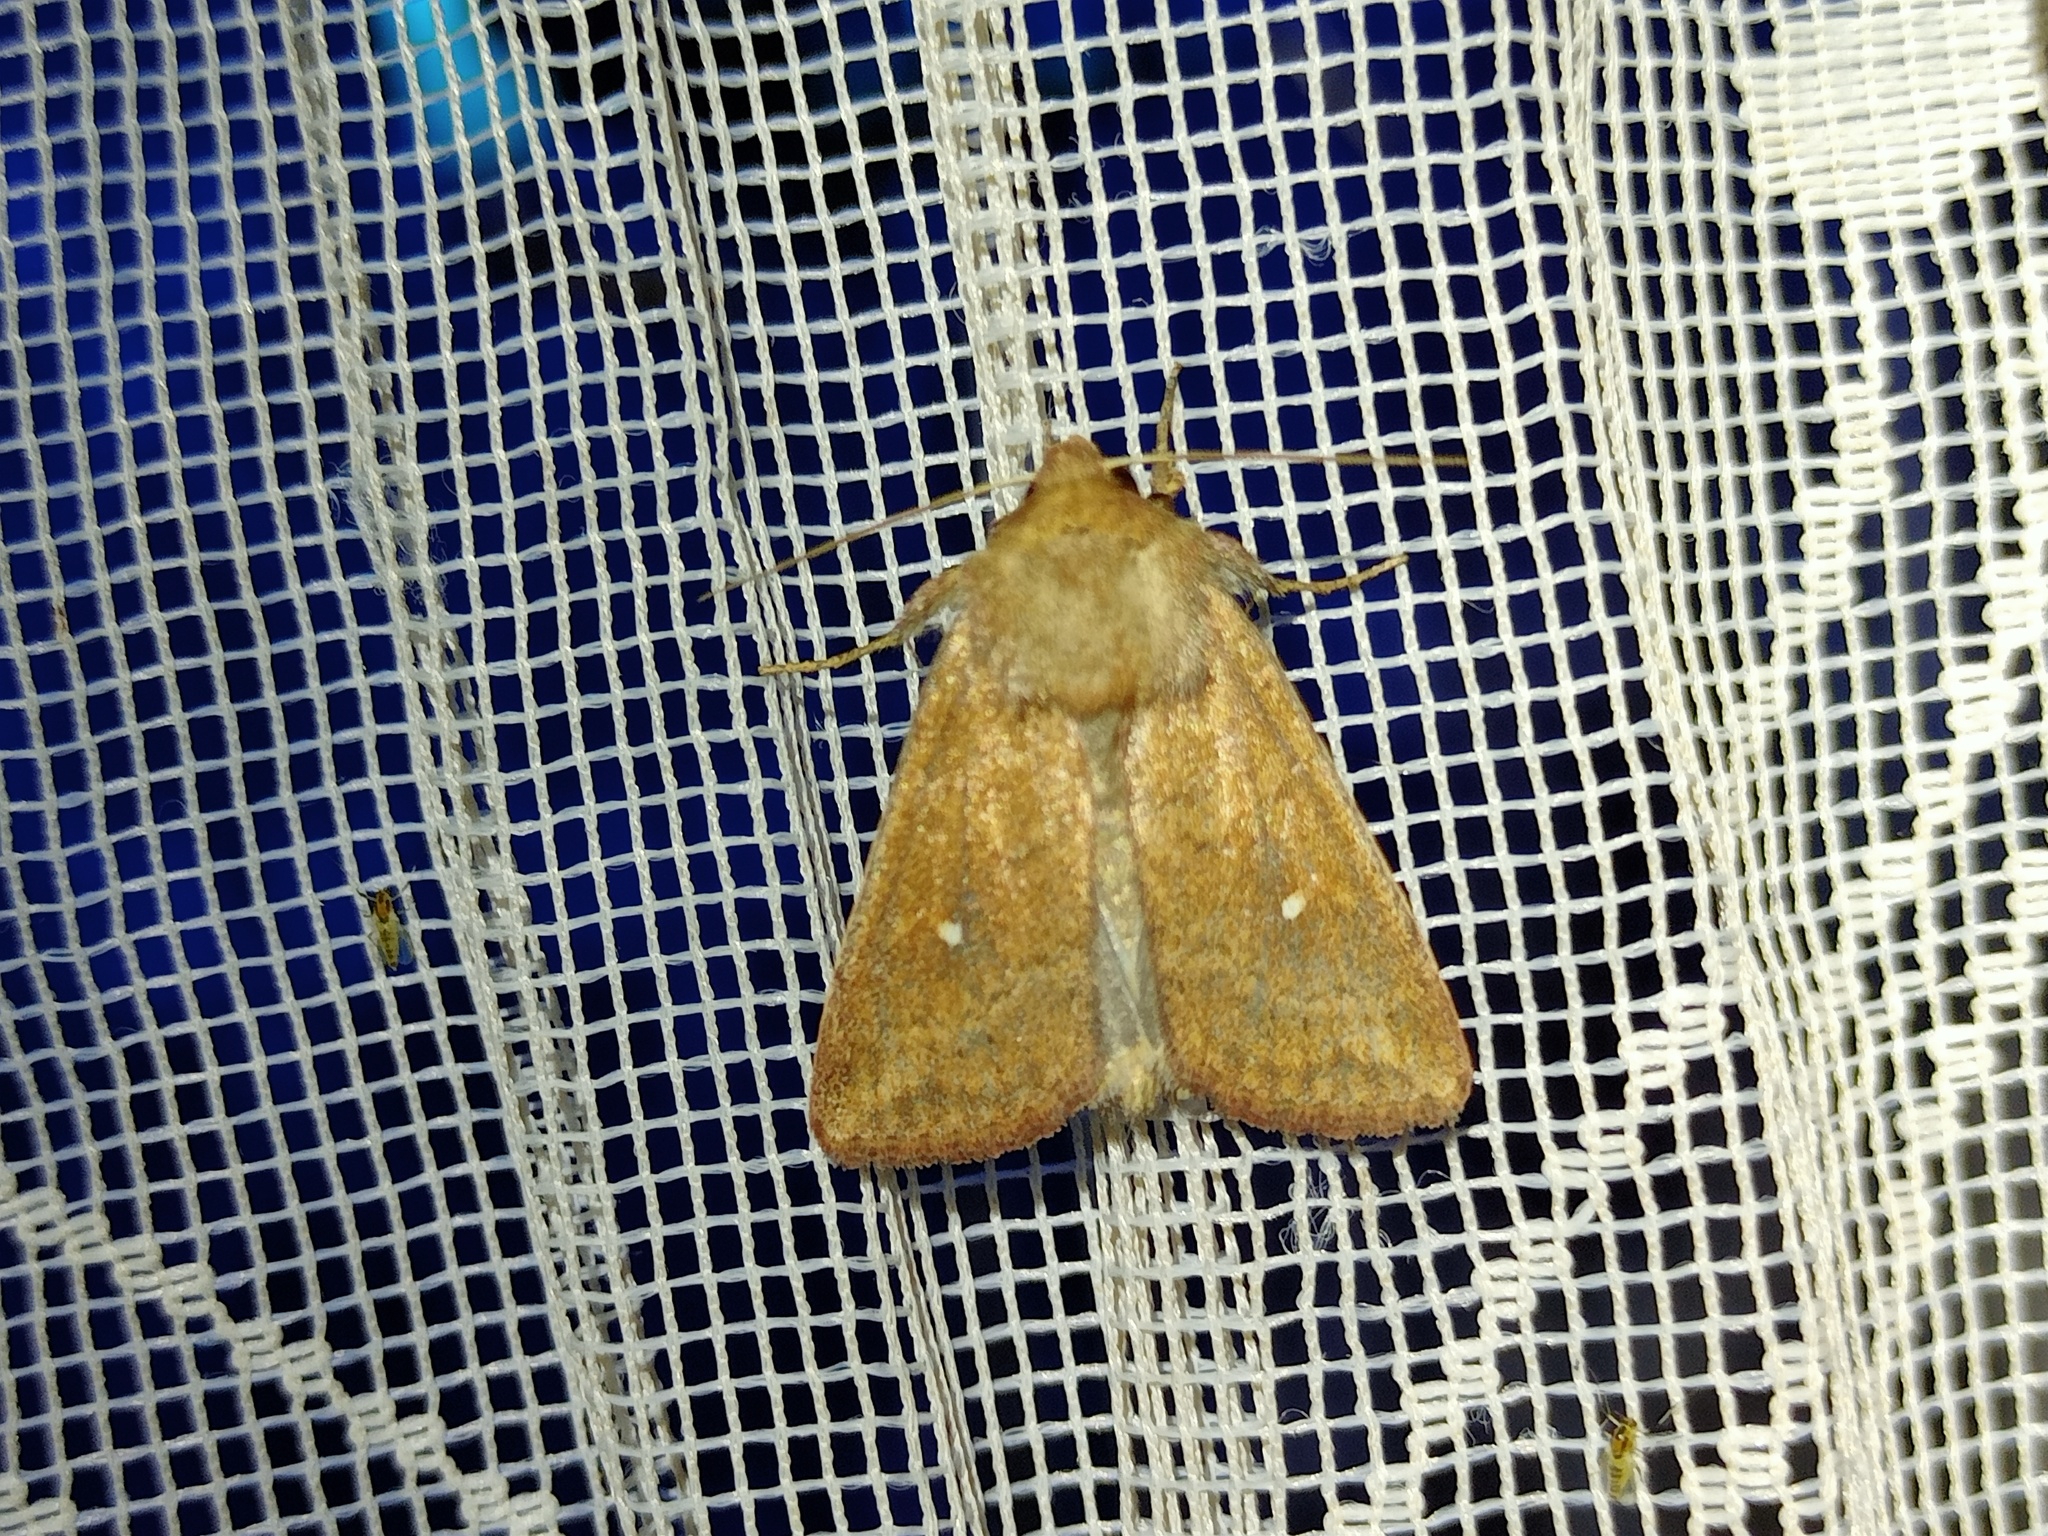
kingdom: Animalia
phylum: Arthropoda
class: Insecta
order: Lepidoptera
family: Noctuidae
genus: Mythimna
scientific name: Mythimna albipuncta
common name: White-point
